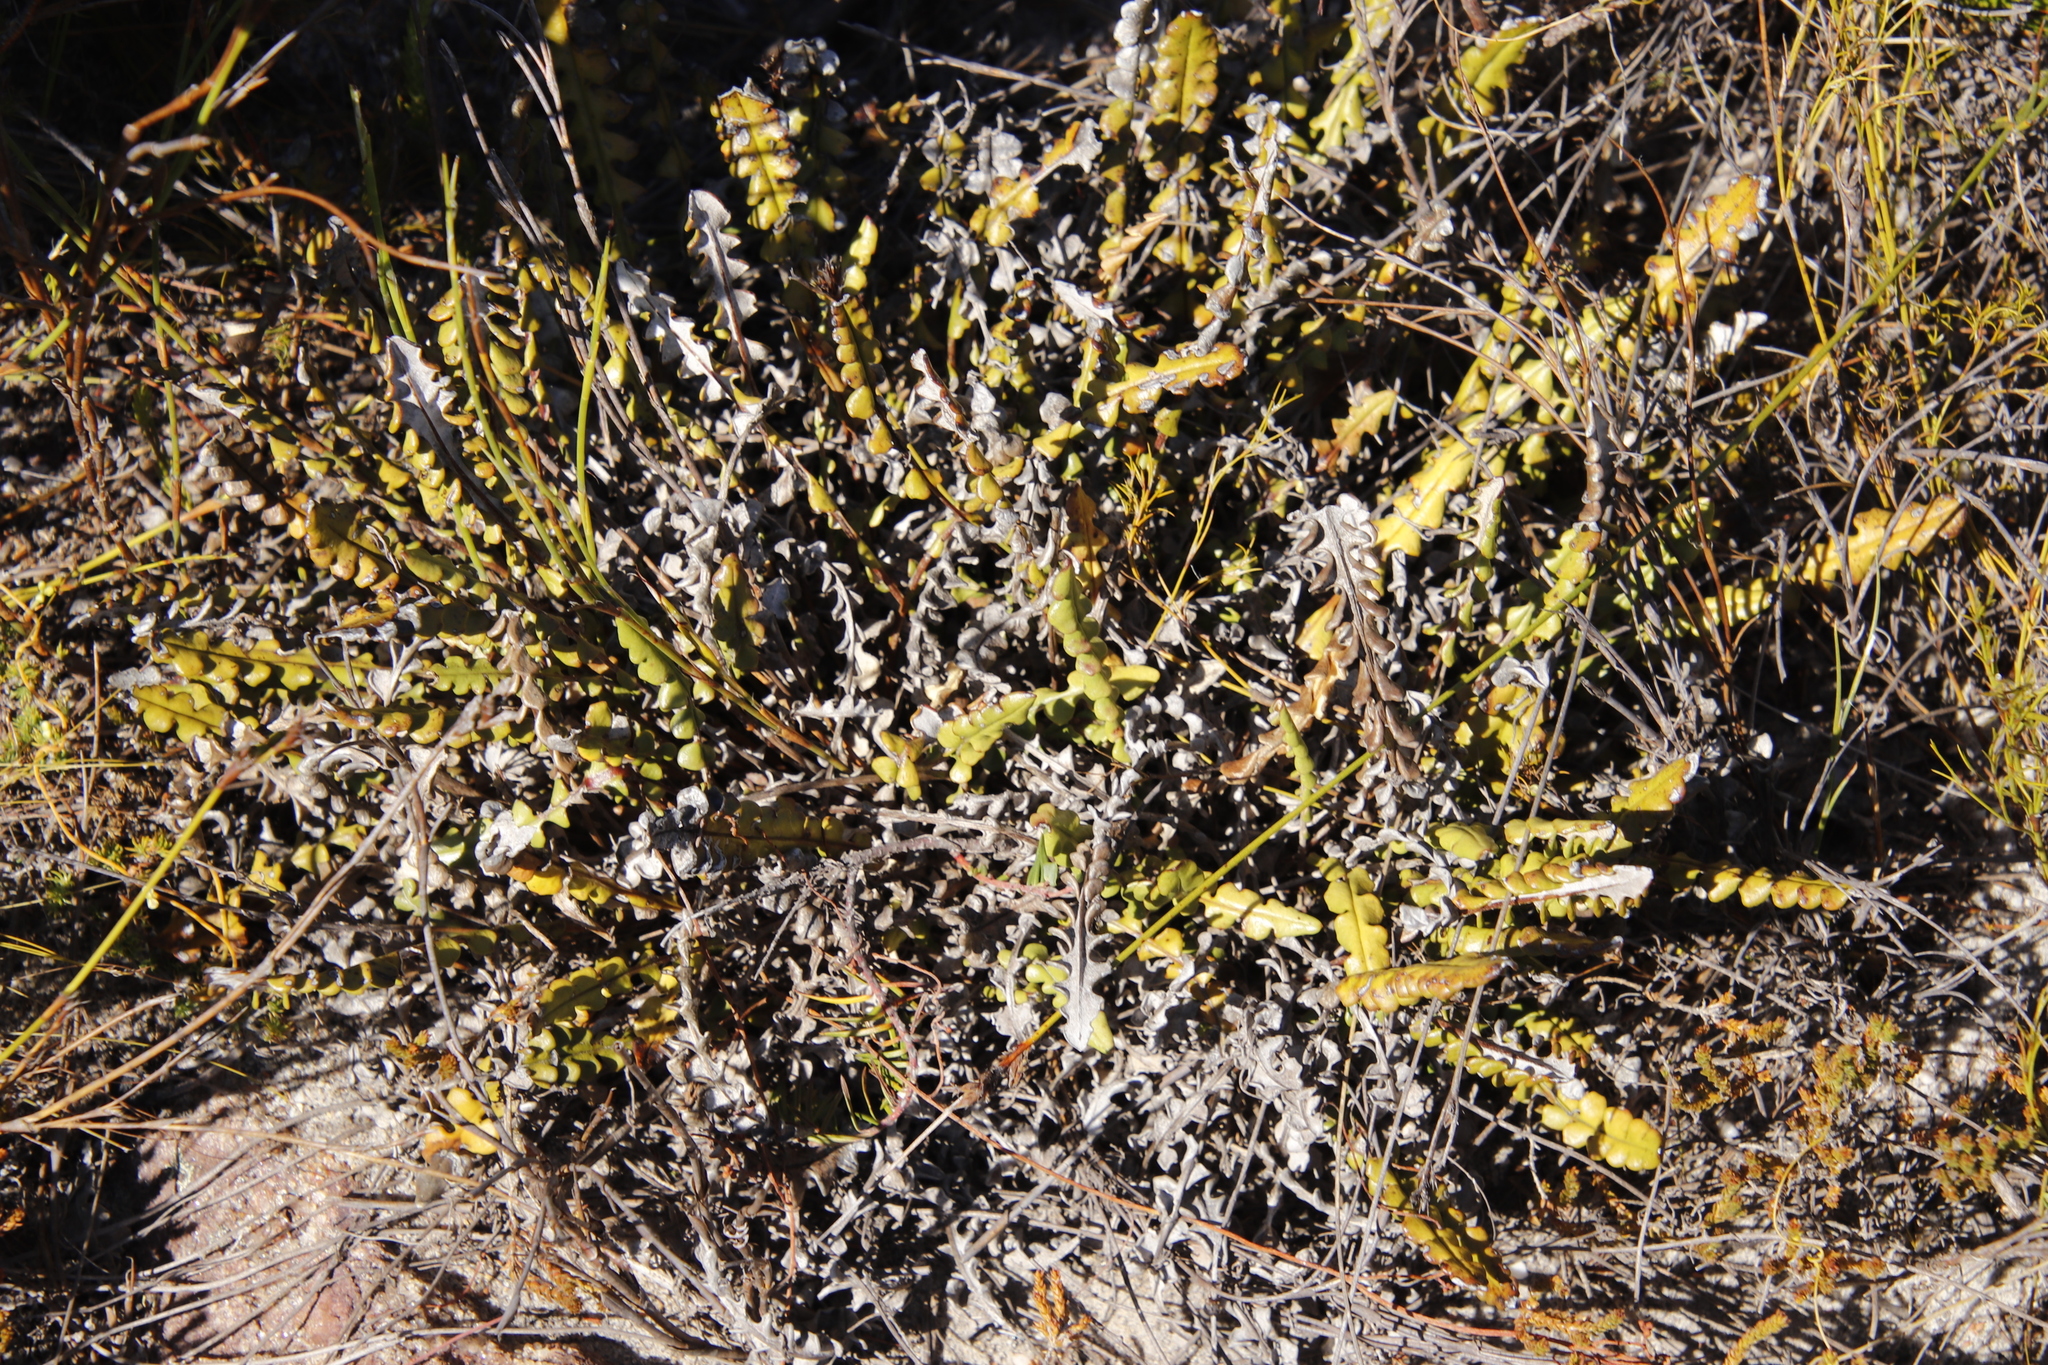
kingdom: Plantae
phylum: Tracheophyta
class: Magnoliopsida
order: Asterales
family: Asteraceae
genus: Gerbera
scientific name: Gerbera linnaei
